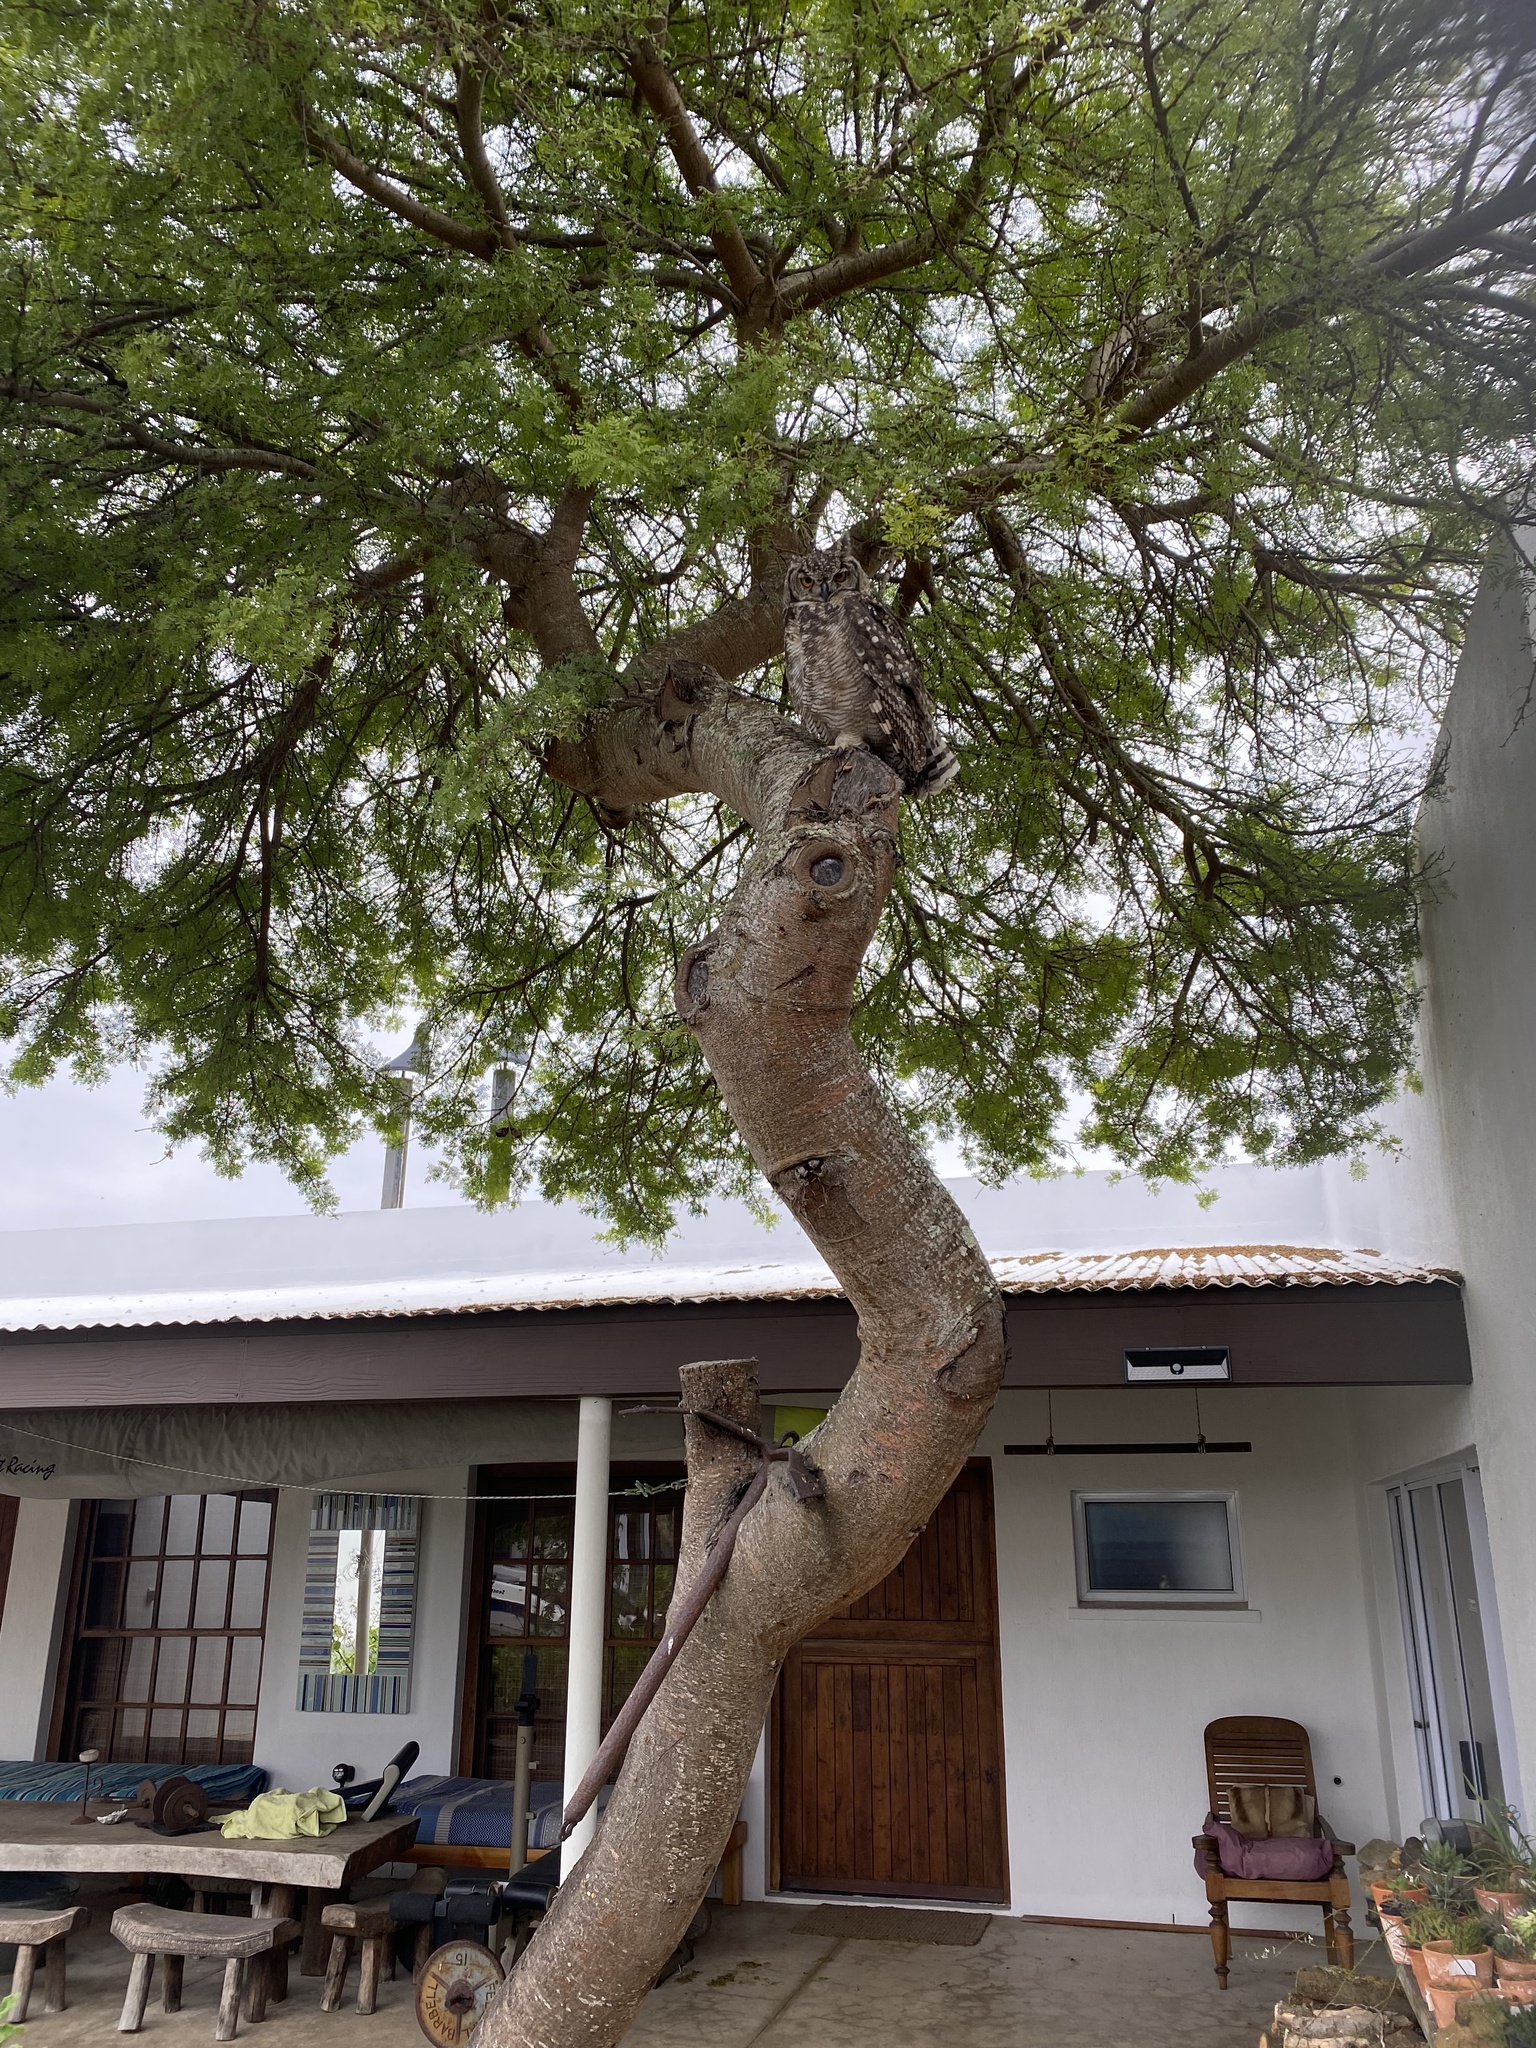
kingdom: Animalia
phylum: Chordata
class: Aves
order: Strigiformes
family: Strigidae
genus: Bubo
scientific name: Bubo africanus
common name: Spotted eagle-owl
